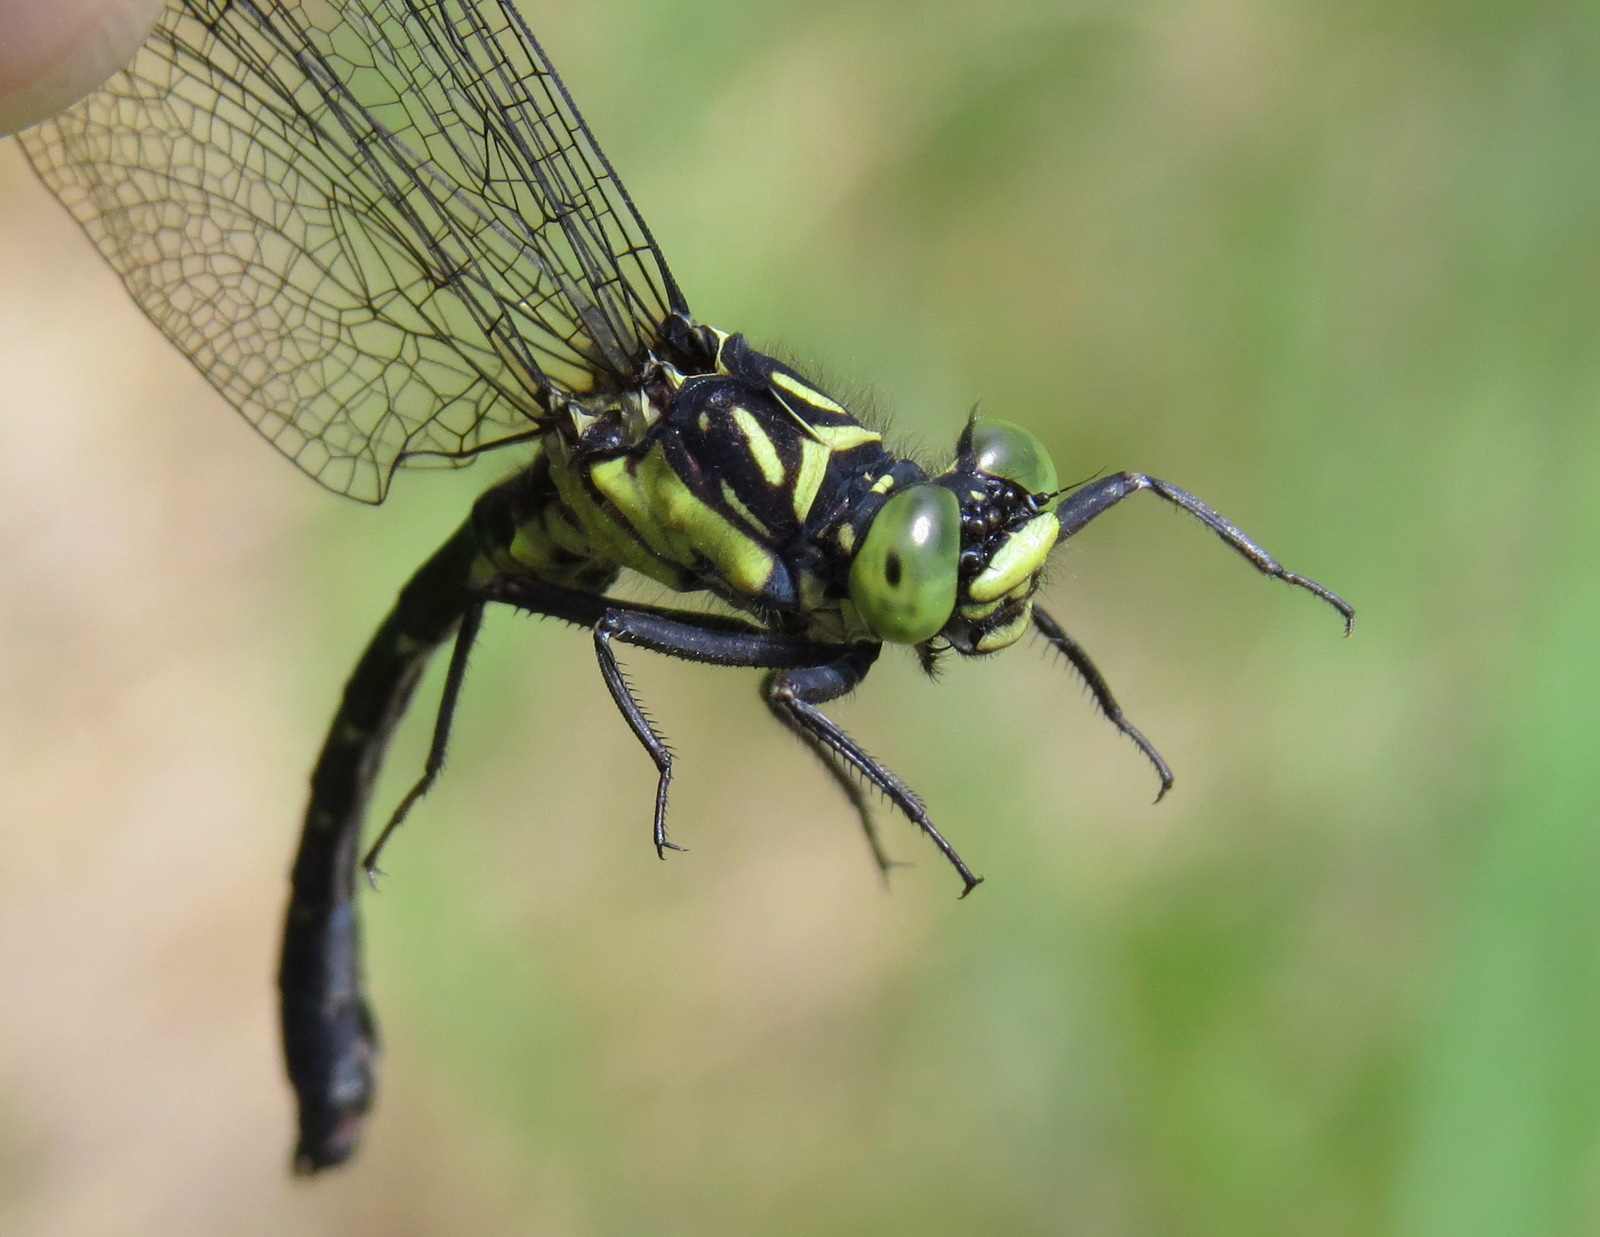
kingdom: Animalia
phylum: Arthropoda
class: Insecta
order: Odonata
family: Gomphidae
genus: Lanthus
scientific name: Lanthus vernalis
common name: Southern pygmy clubtail
